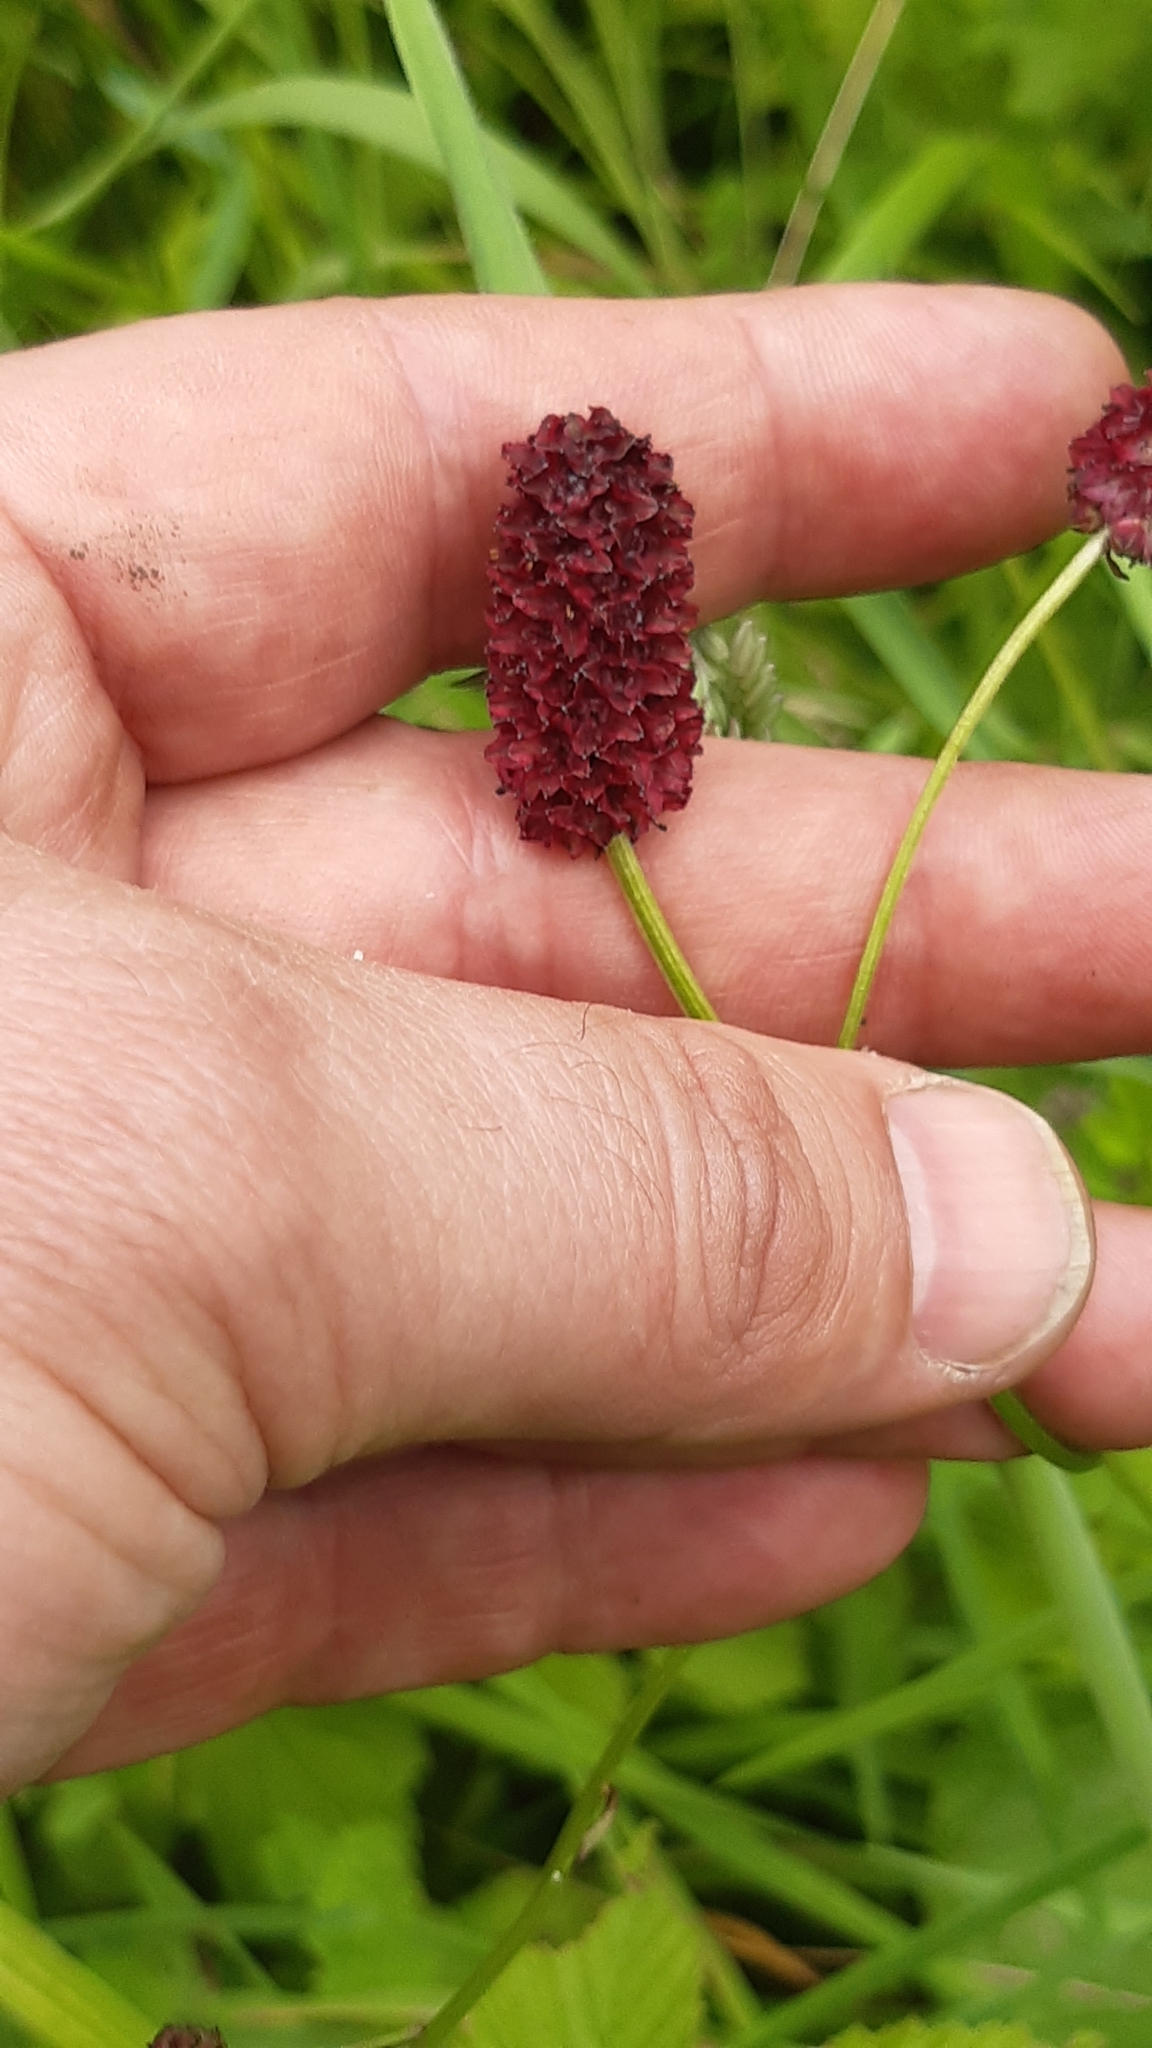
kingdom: Plantae
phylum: Tracheophyta
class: Magnoliopsida
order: Rosales
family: Rosaceae
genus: Sanguisorba
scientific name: Sanguisorba officinalis
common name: Great burnet
